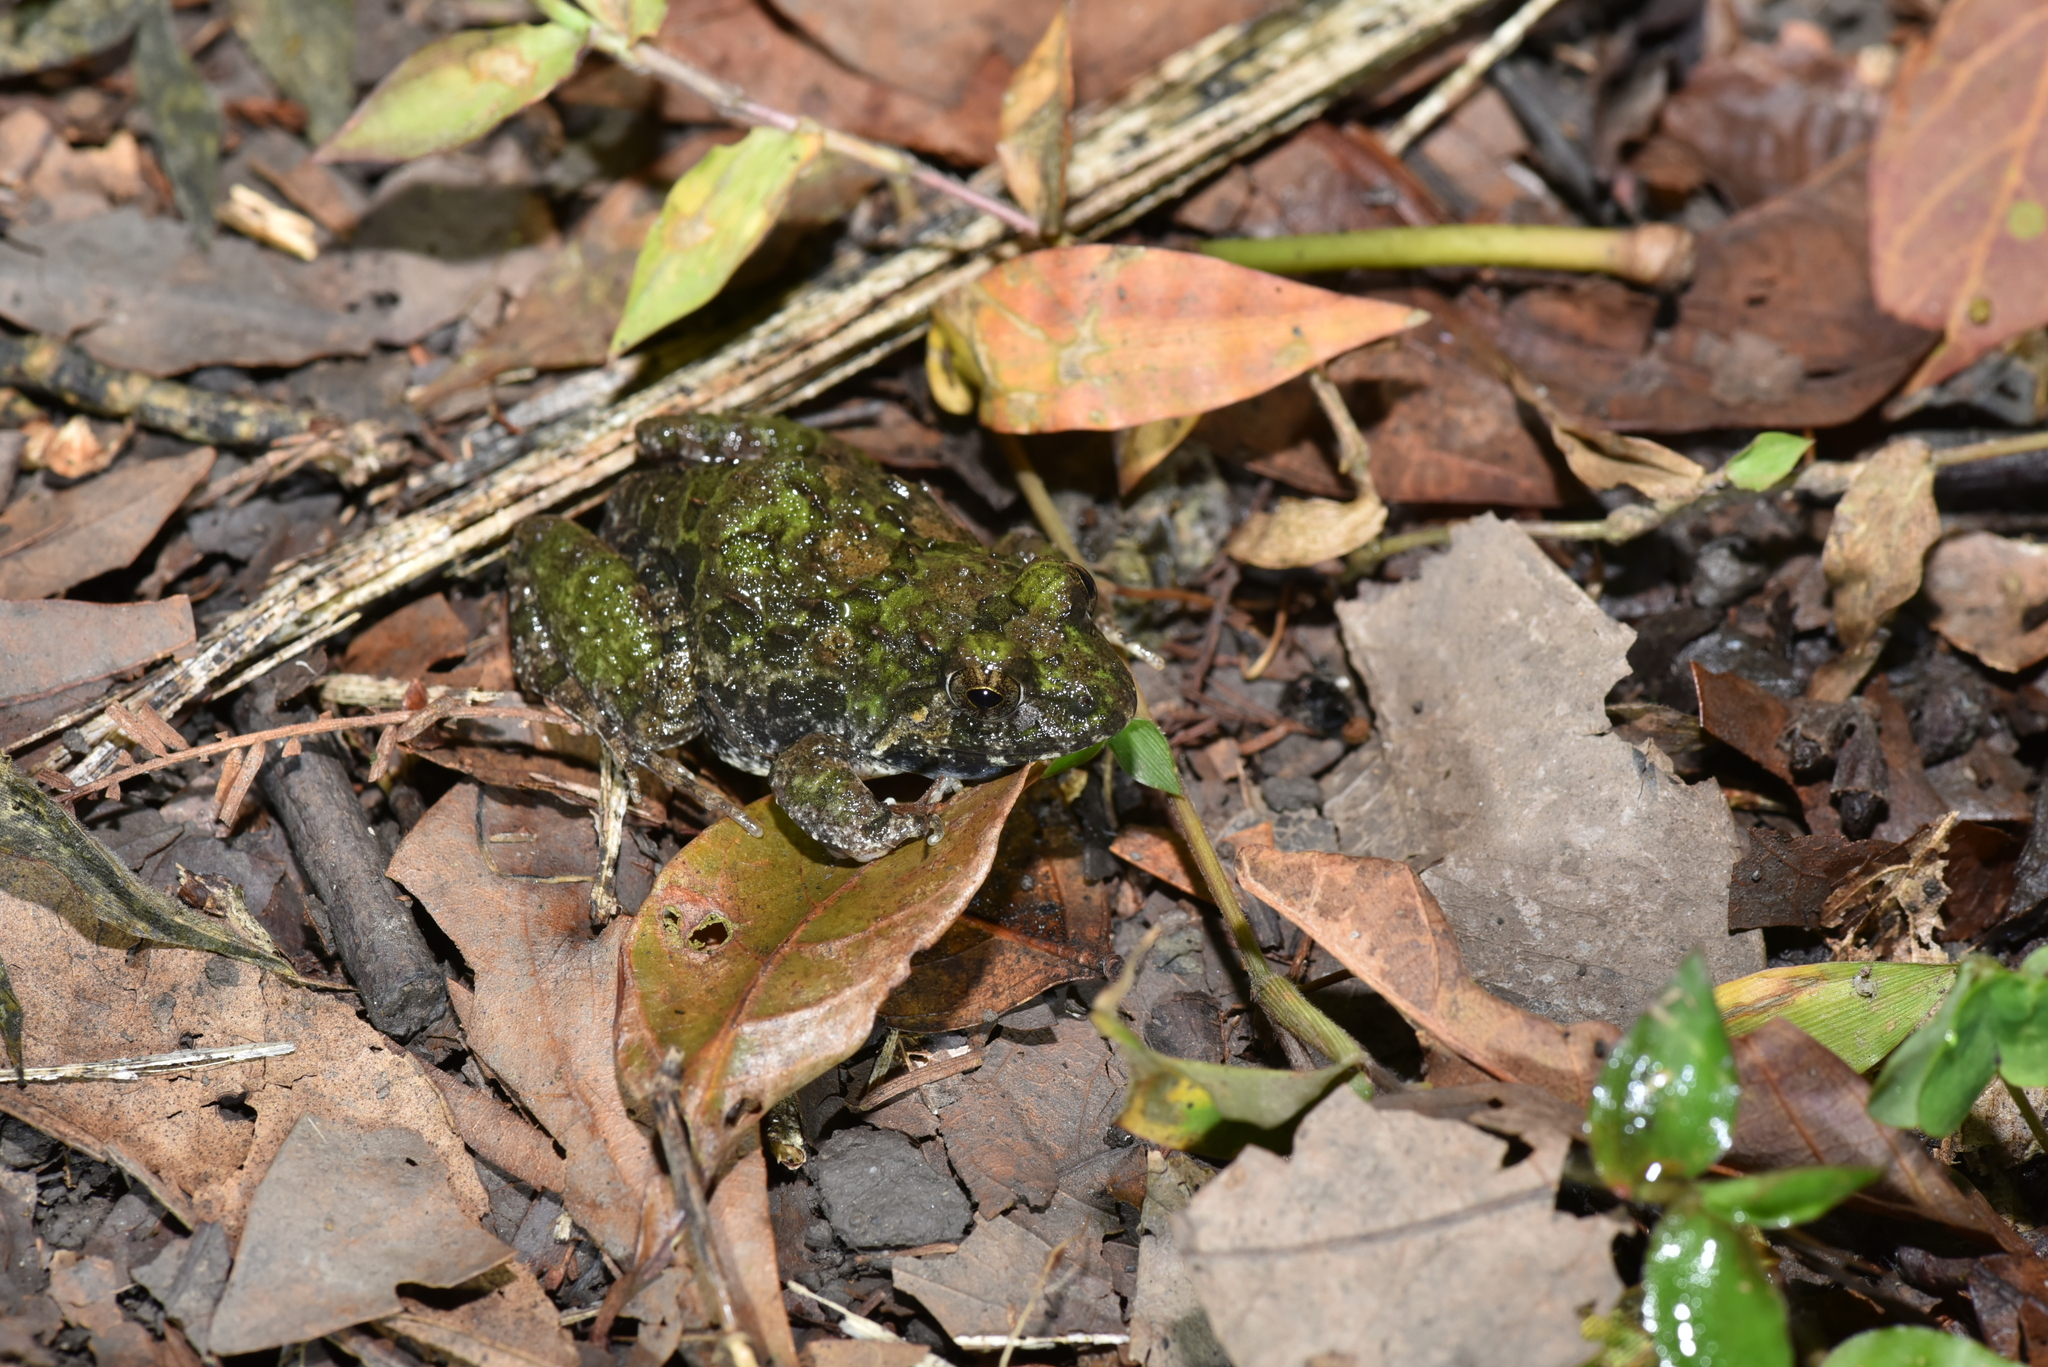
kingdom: Animalia
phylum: Chordata
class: Amphibia
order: Anura
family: Dicroglossidae
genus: Fejervarya
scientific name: Fejervarya limnocharis
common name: Asian grass frog/common pond frog/field frog/grass frog/indian rice frog
